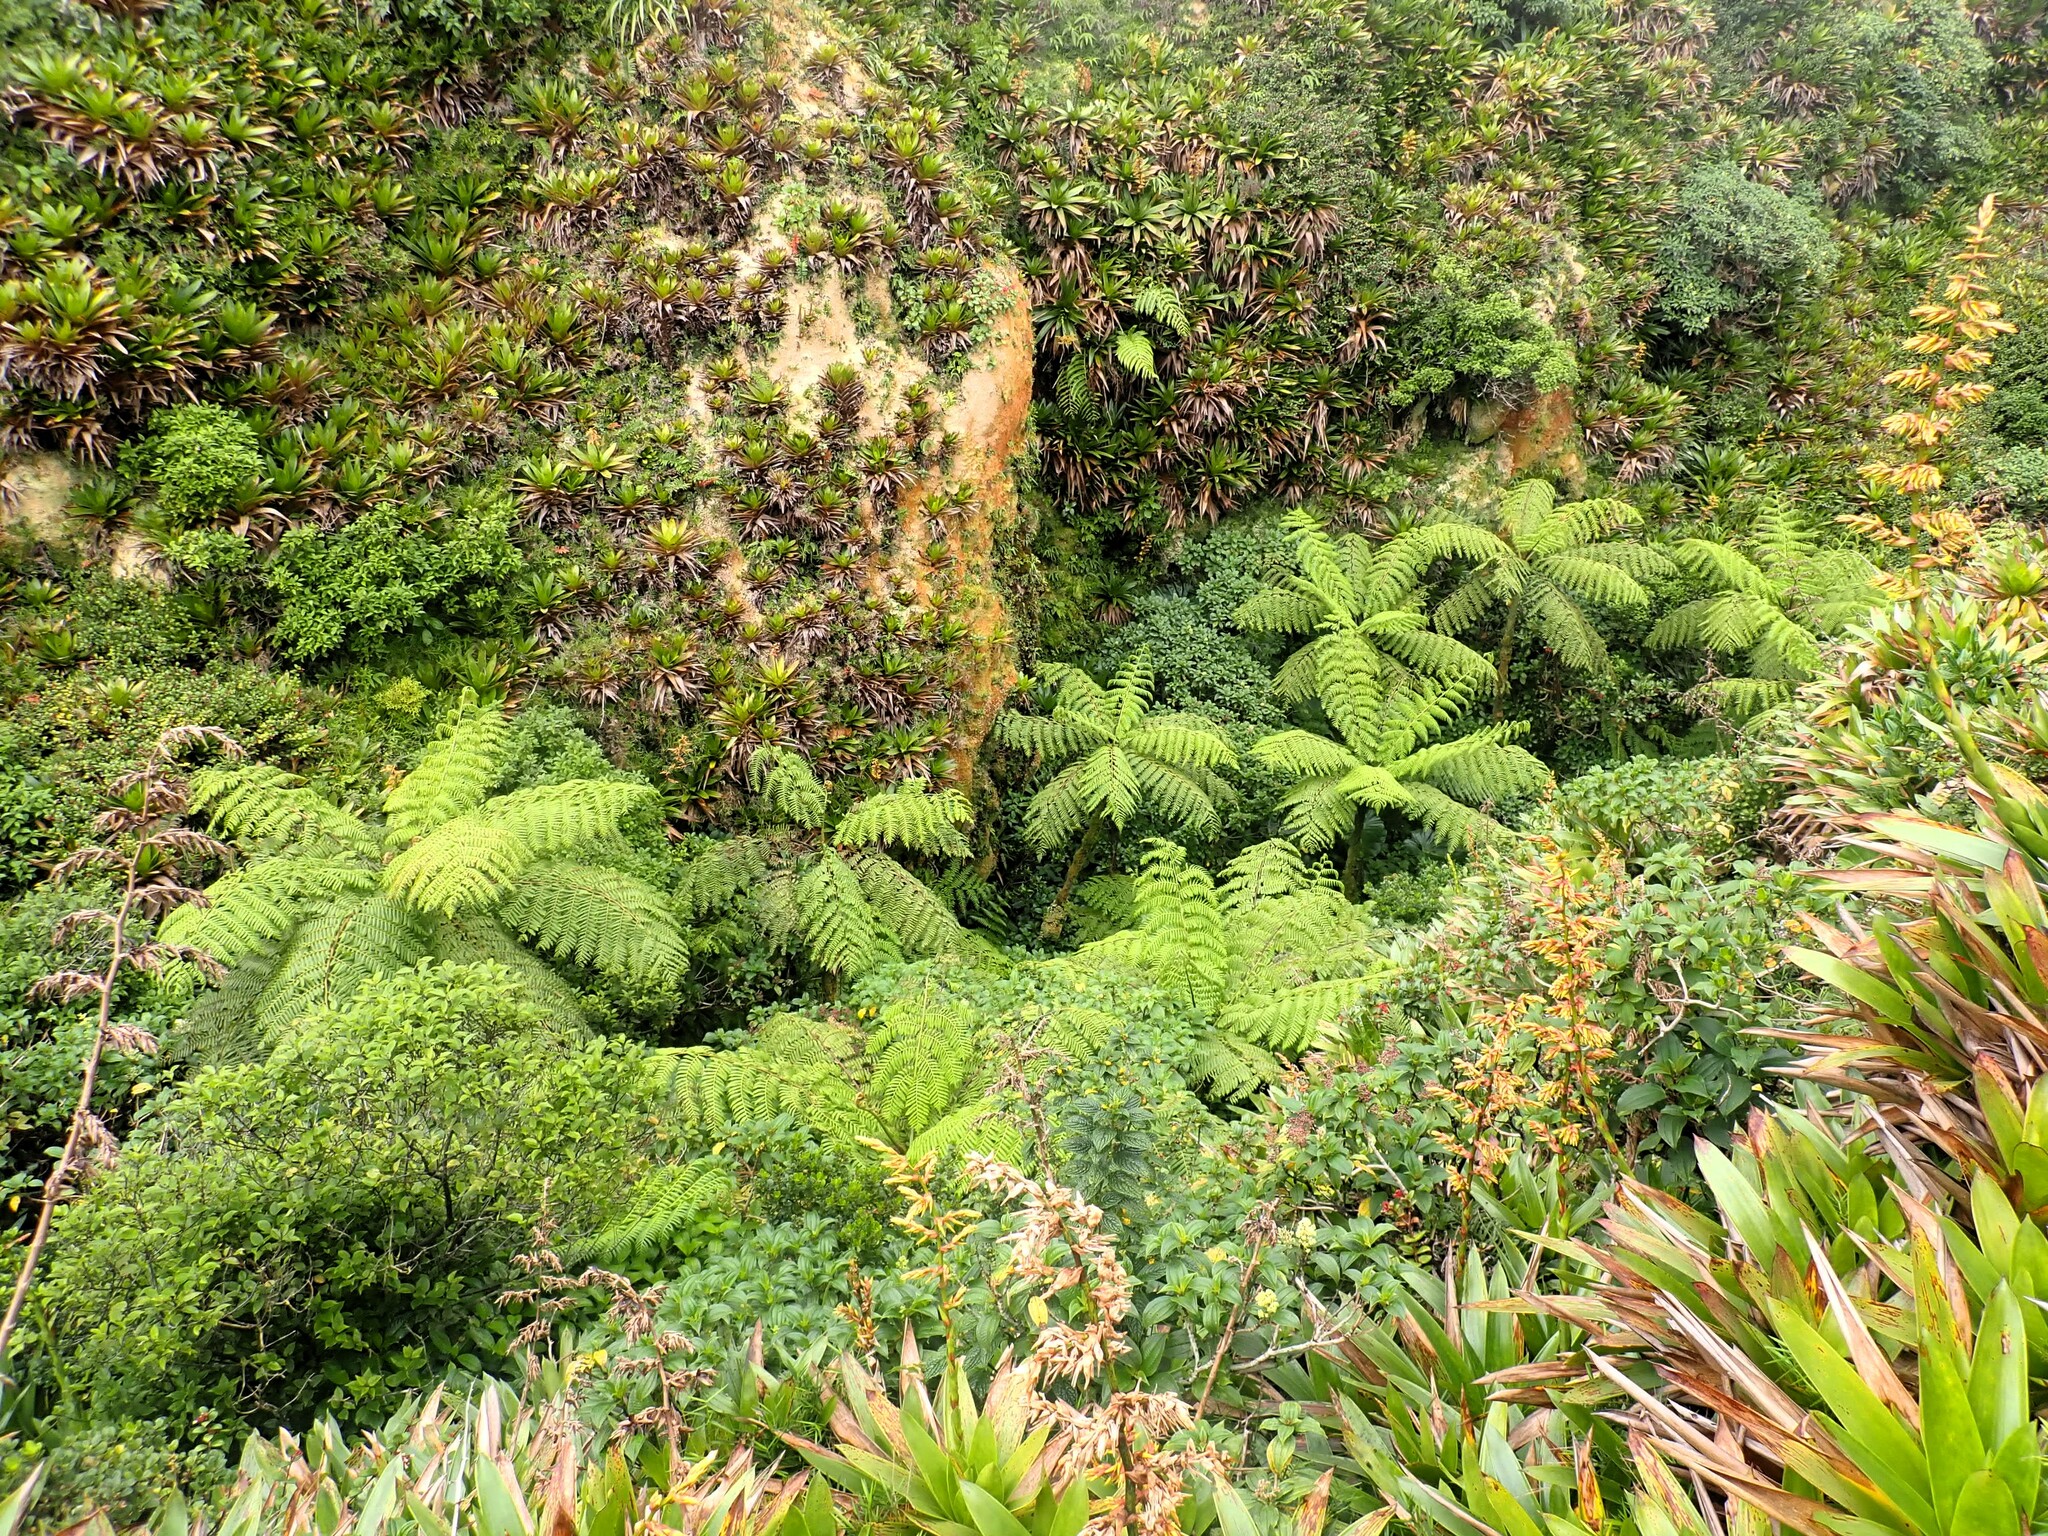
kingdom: Plantae
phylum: Tracheophyta
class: Polypodiopsida
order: Cyatheales
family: Cyatheaceae
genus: Cyathea
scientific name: Cyathea arborea
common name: West indian treefern
